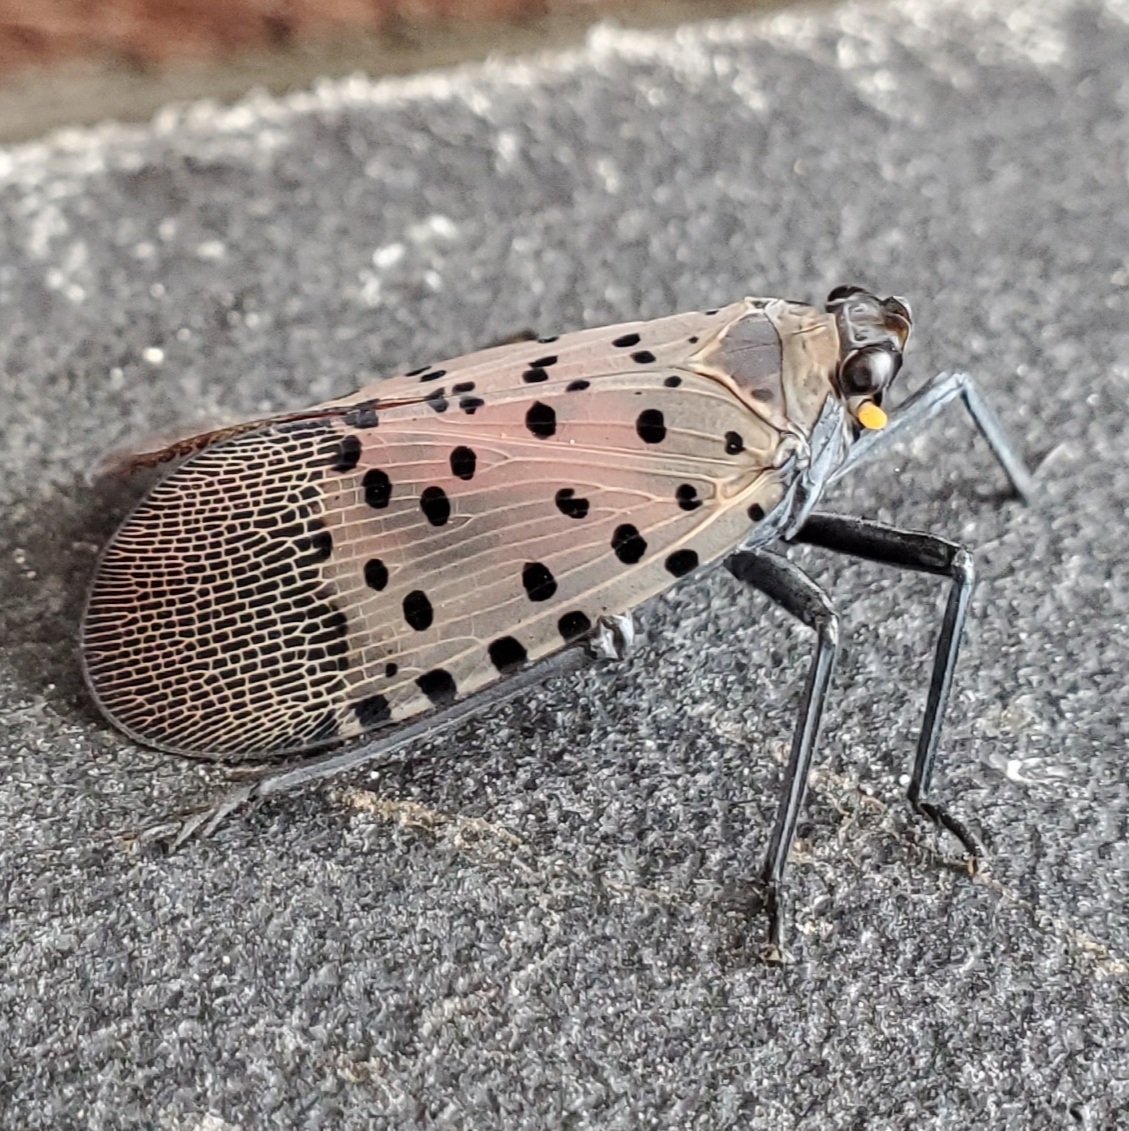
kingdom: Animalia
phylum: Arthropoda
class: Insecta
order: Hemiptera
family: Fulgoridae
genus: Lycorma
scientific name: Lycorma delicatula
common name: Spotted lanternfly
